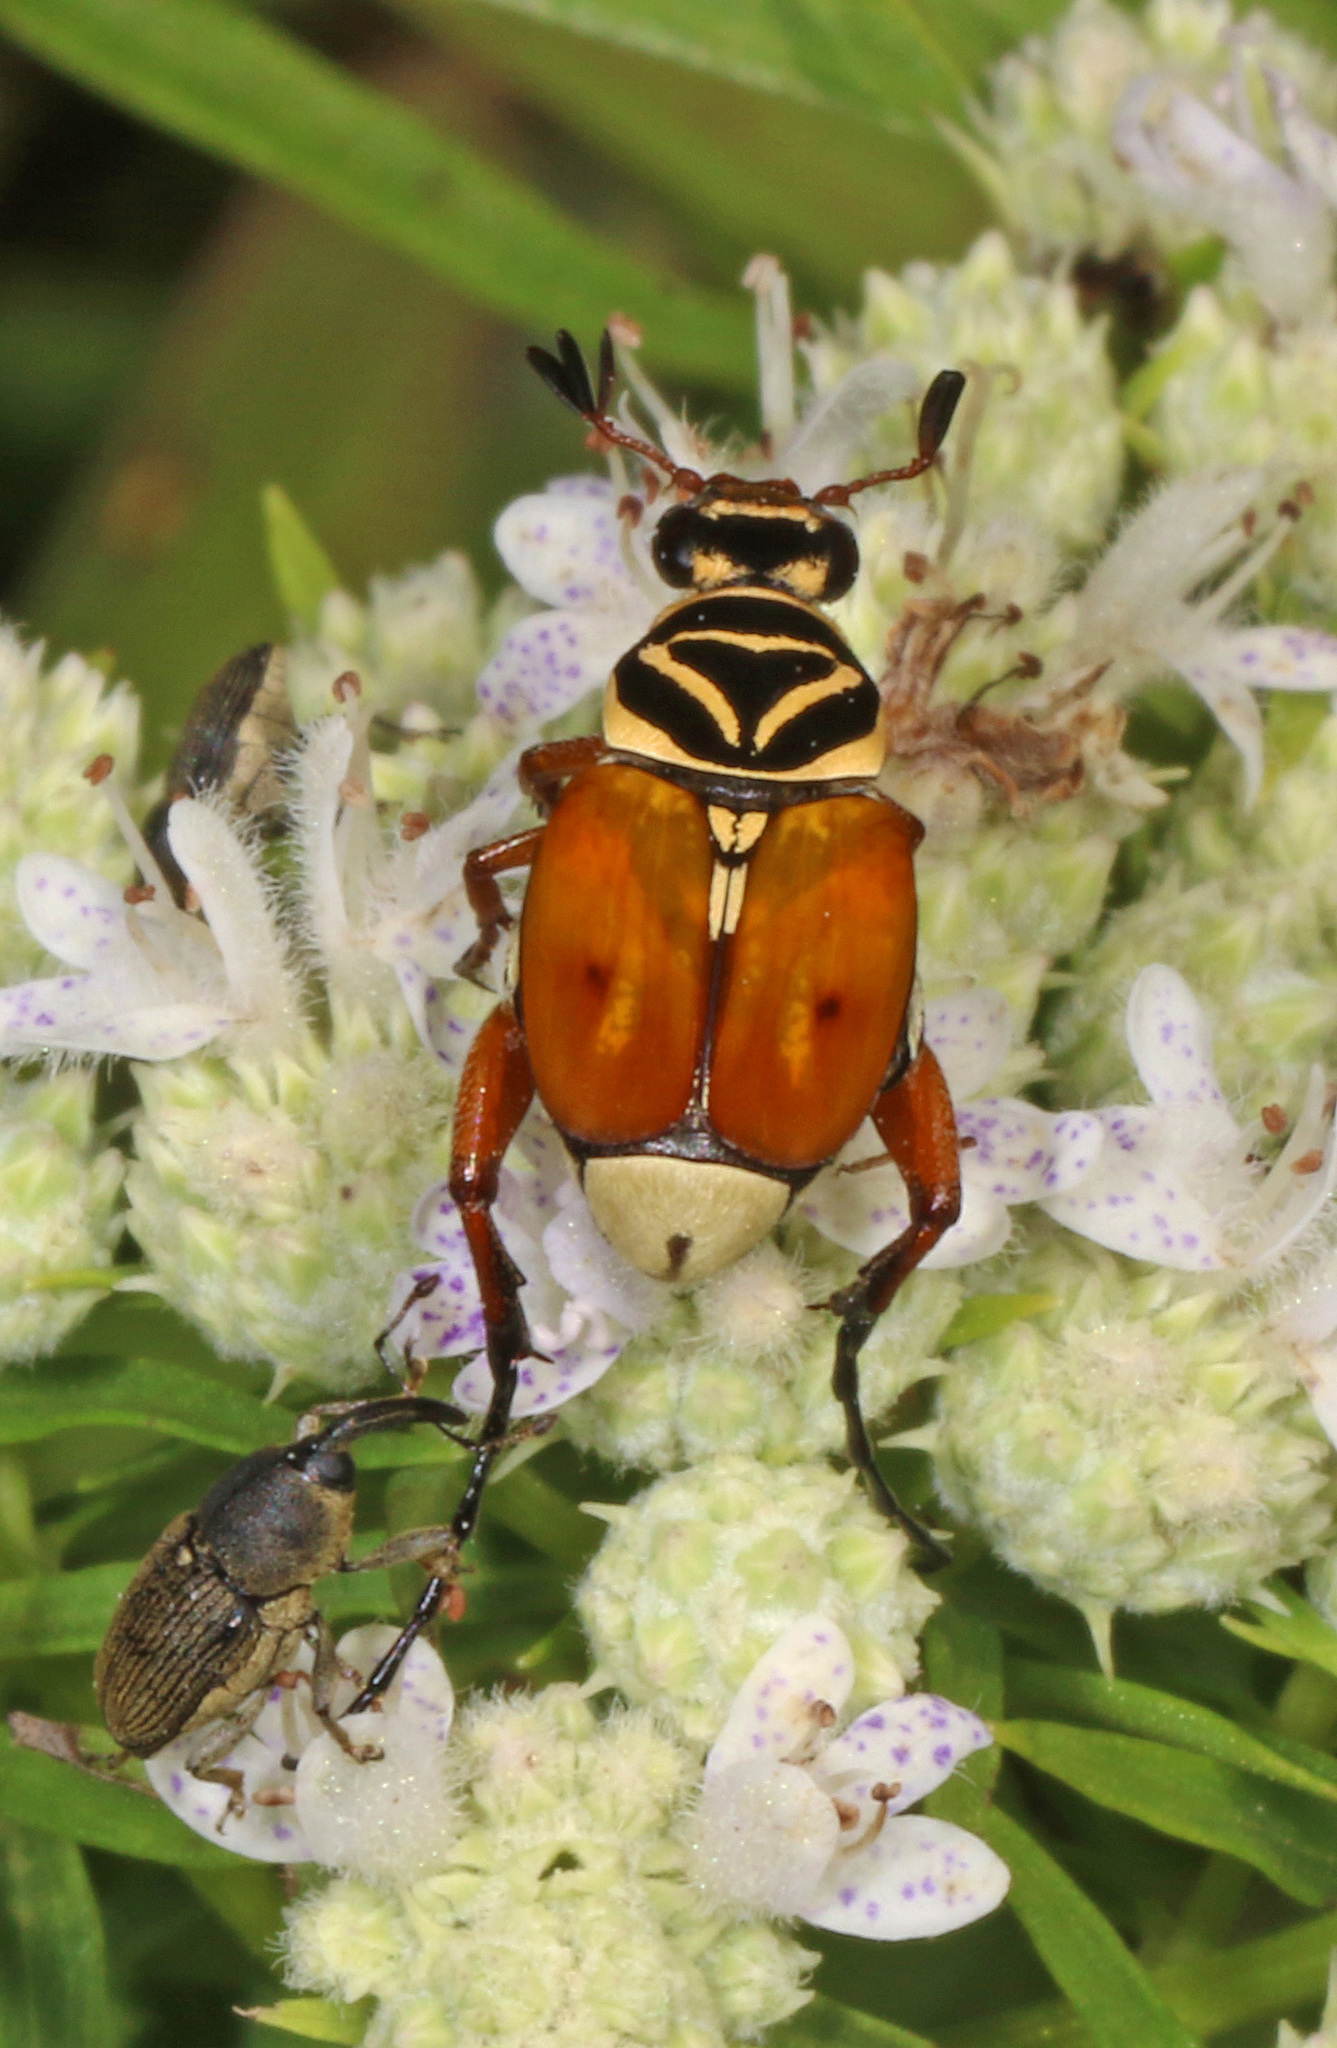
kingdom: Animalia
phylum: Arthropoda
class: Insecta
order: Coleoptera
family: Scarabaeidae
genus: Trigonopeltastes
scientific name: Trigonopeltastes delta
